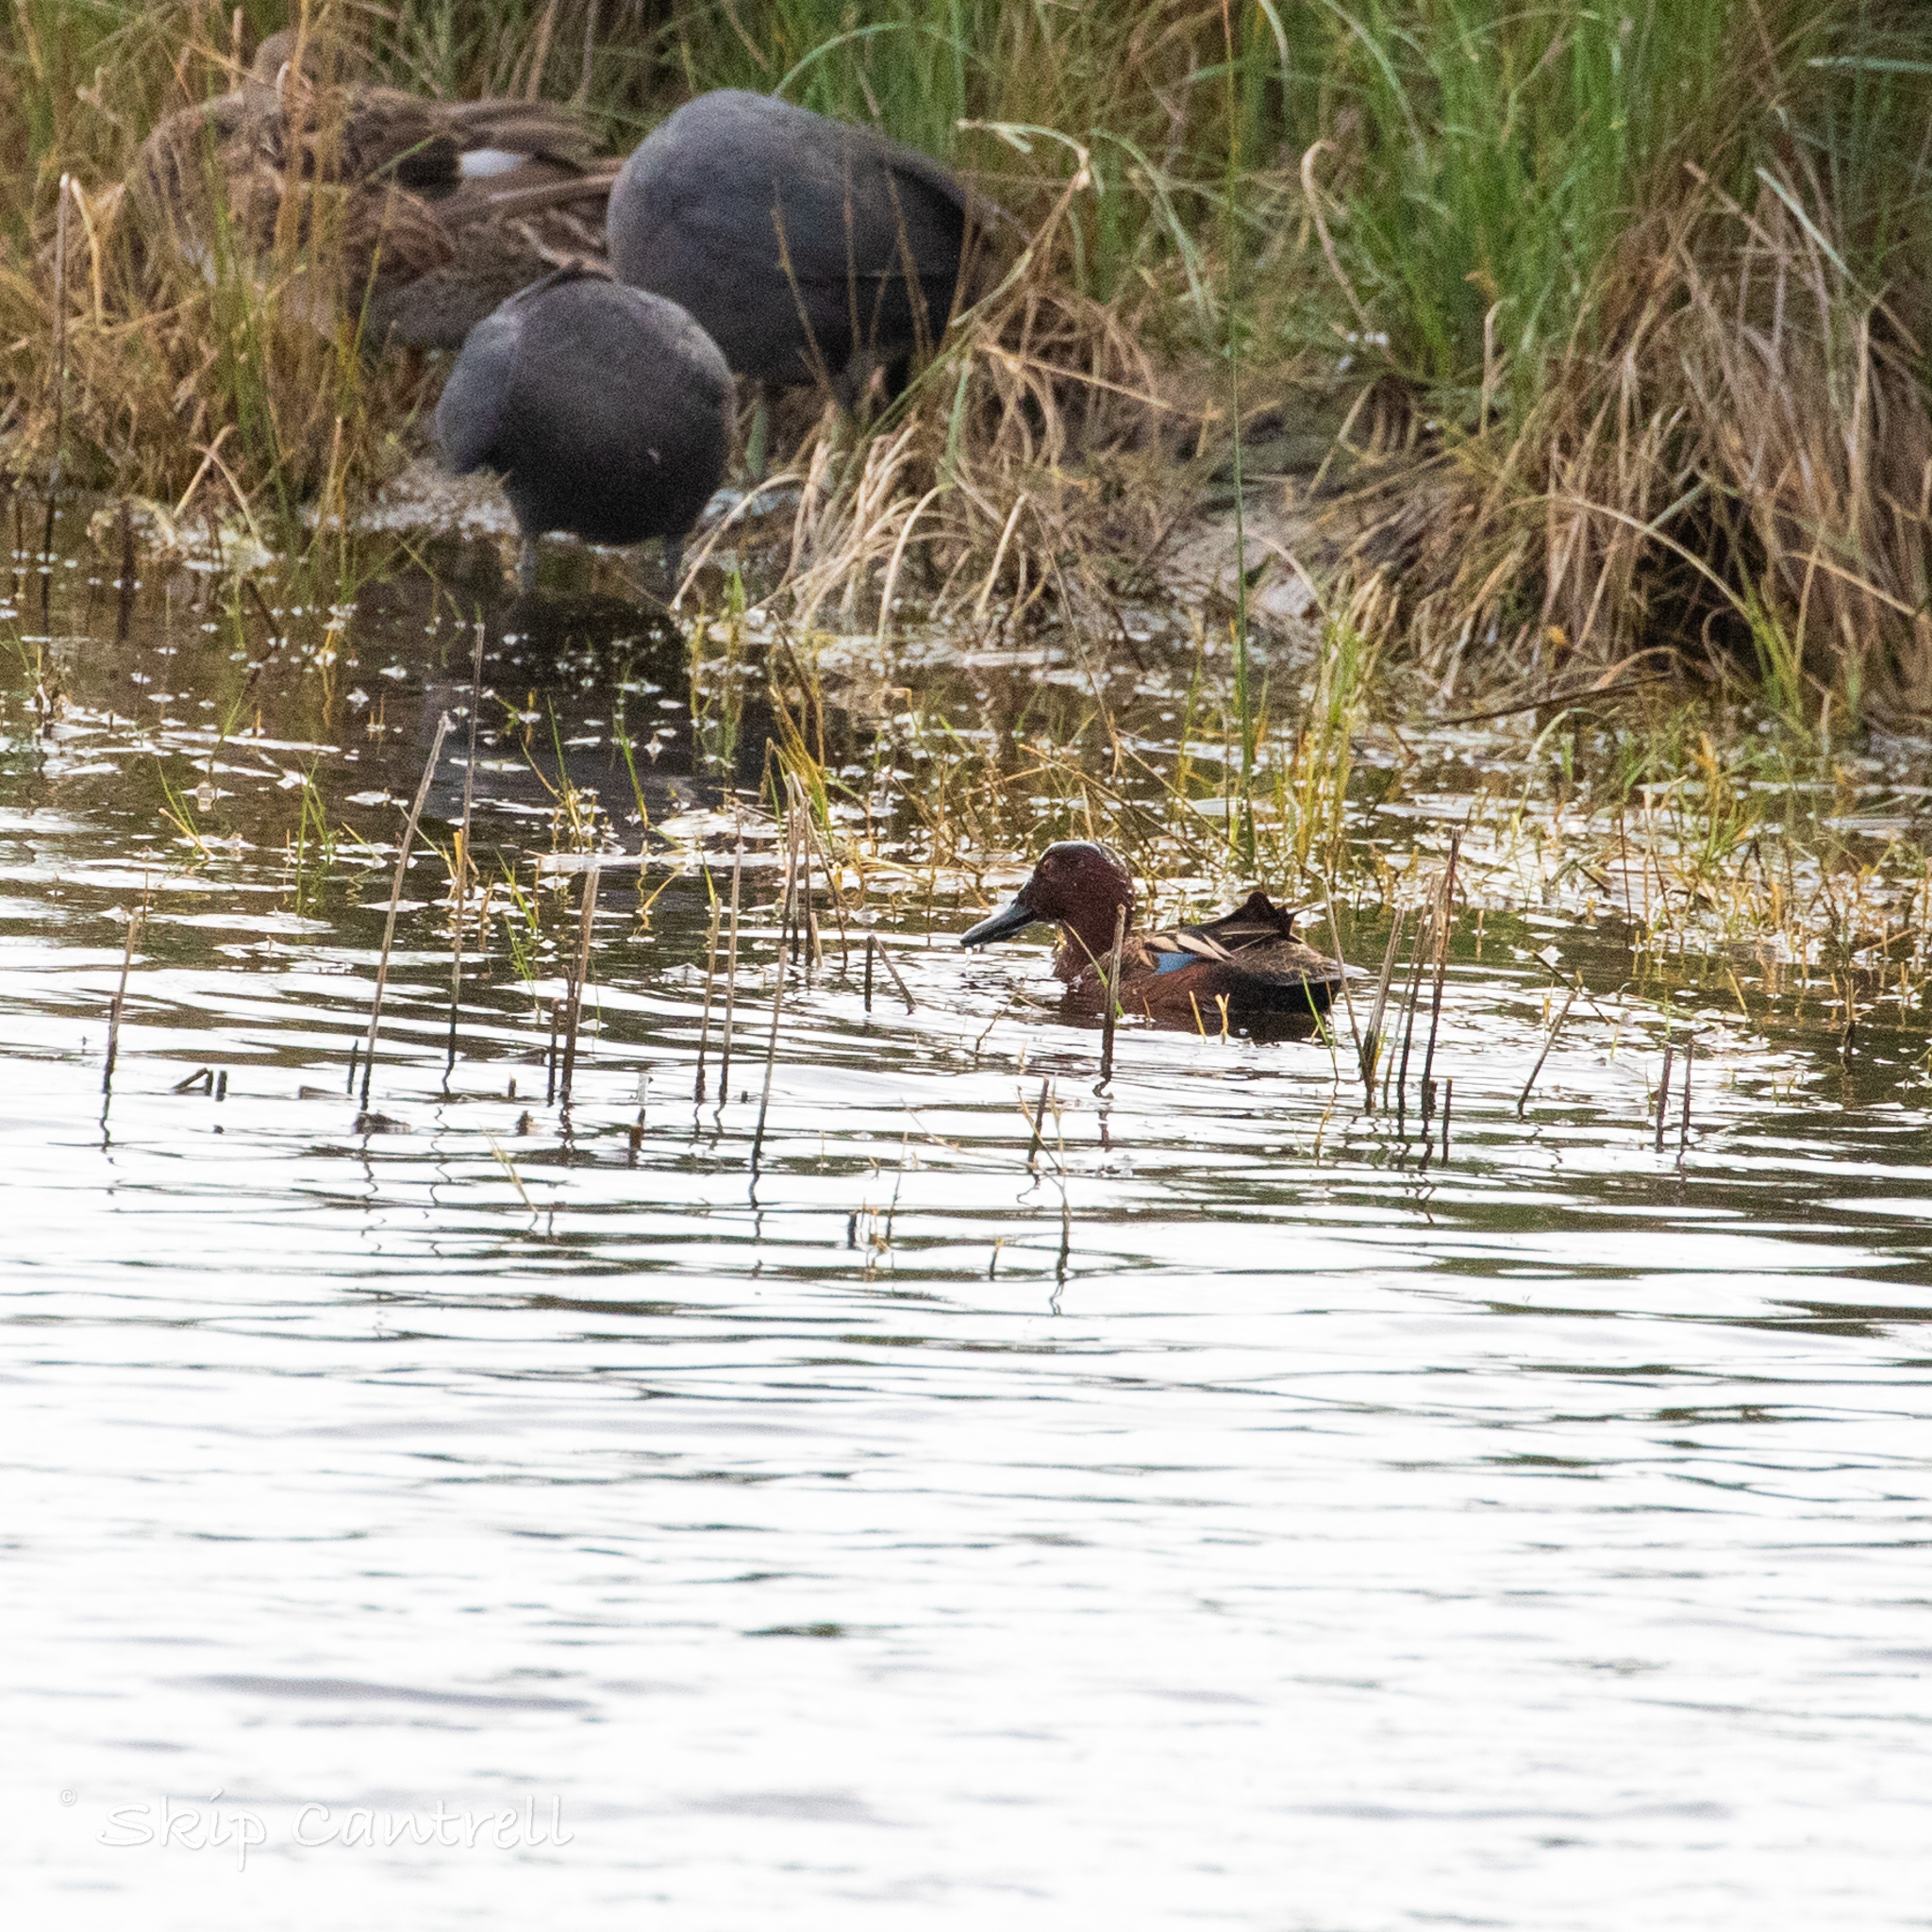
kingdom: Animalia
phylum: Chordata
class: Aves
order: Anseriformes
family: Anatidae
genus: Spatula
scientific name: Spatula cyanoptera
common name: Cinnamon teal
